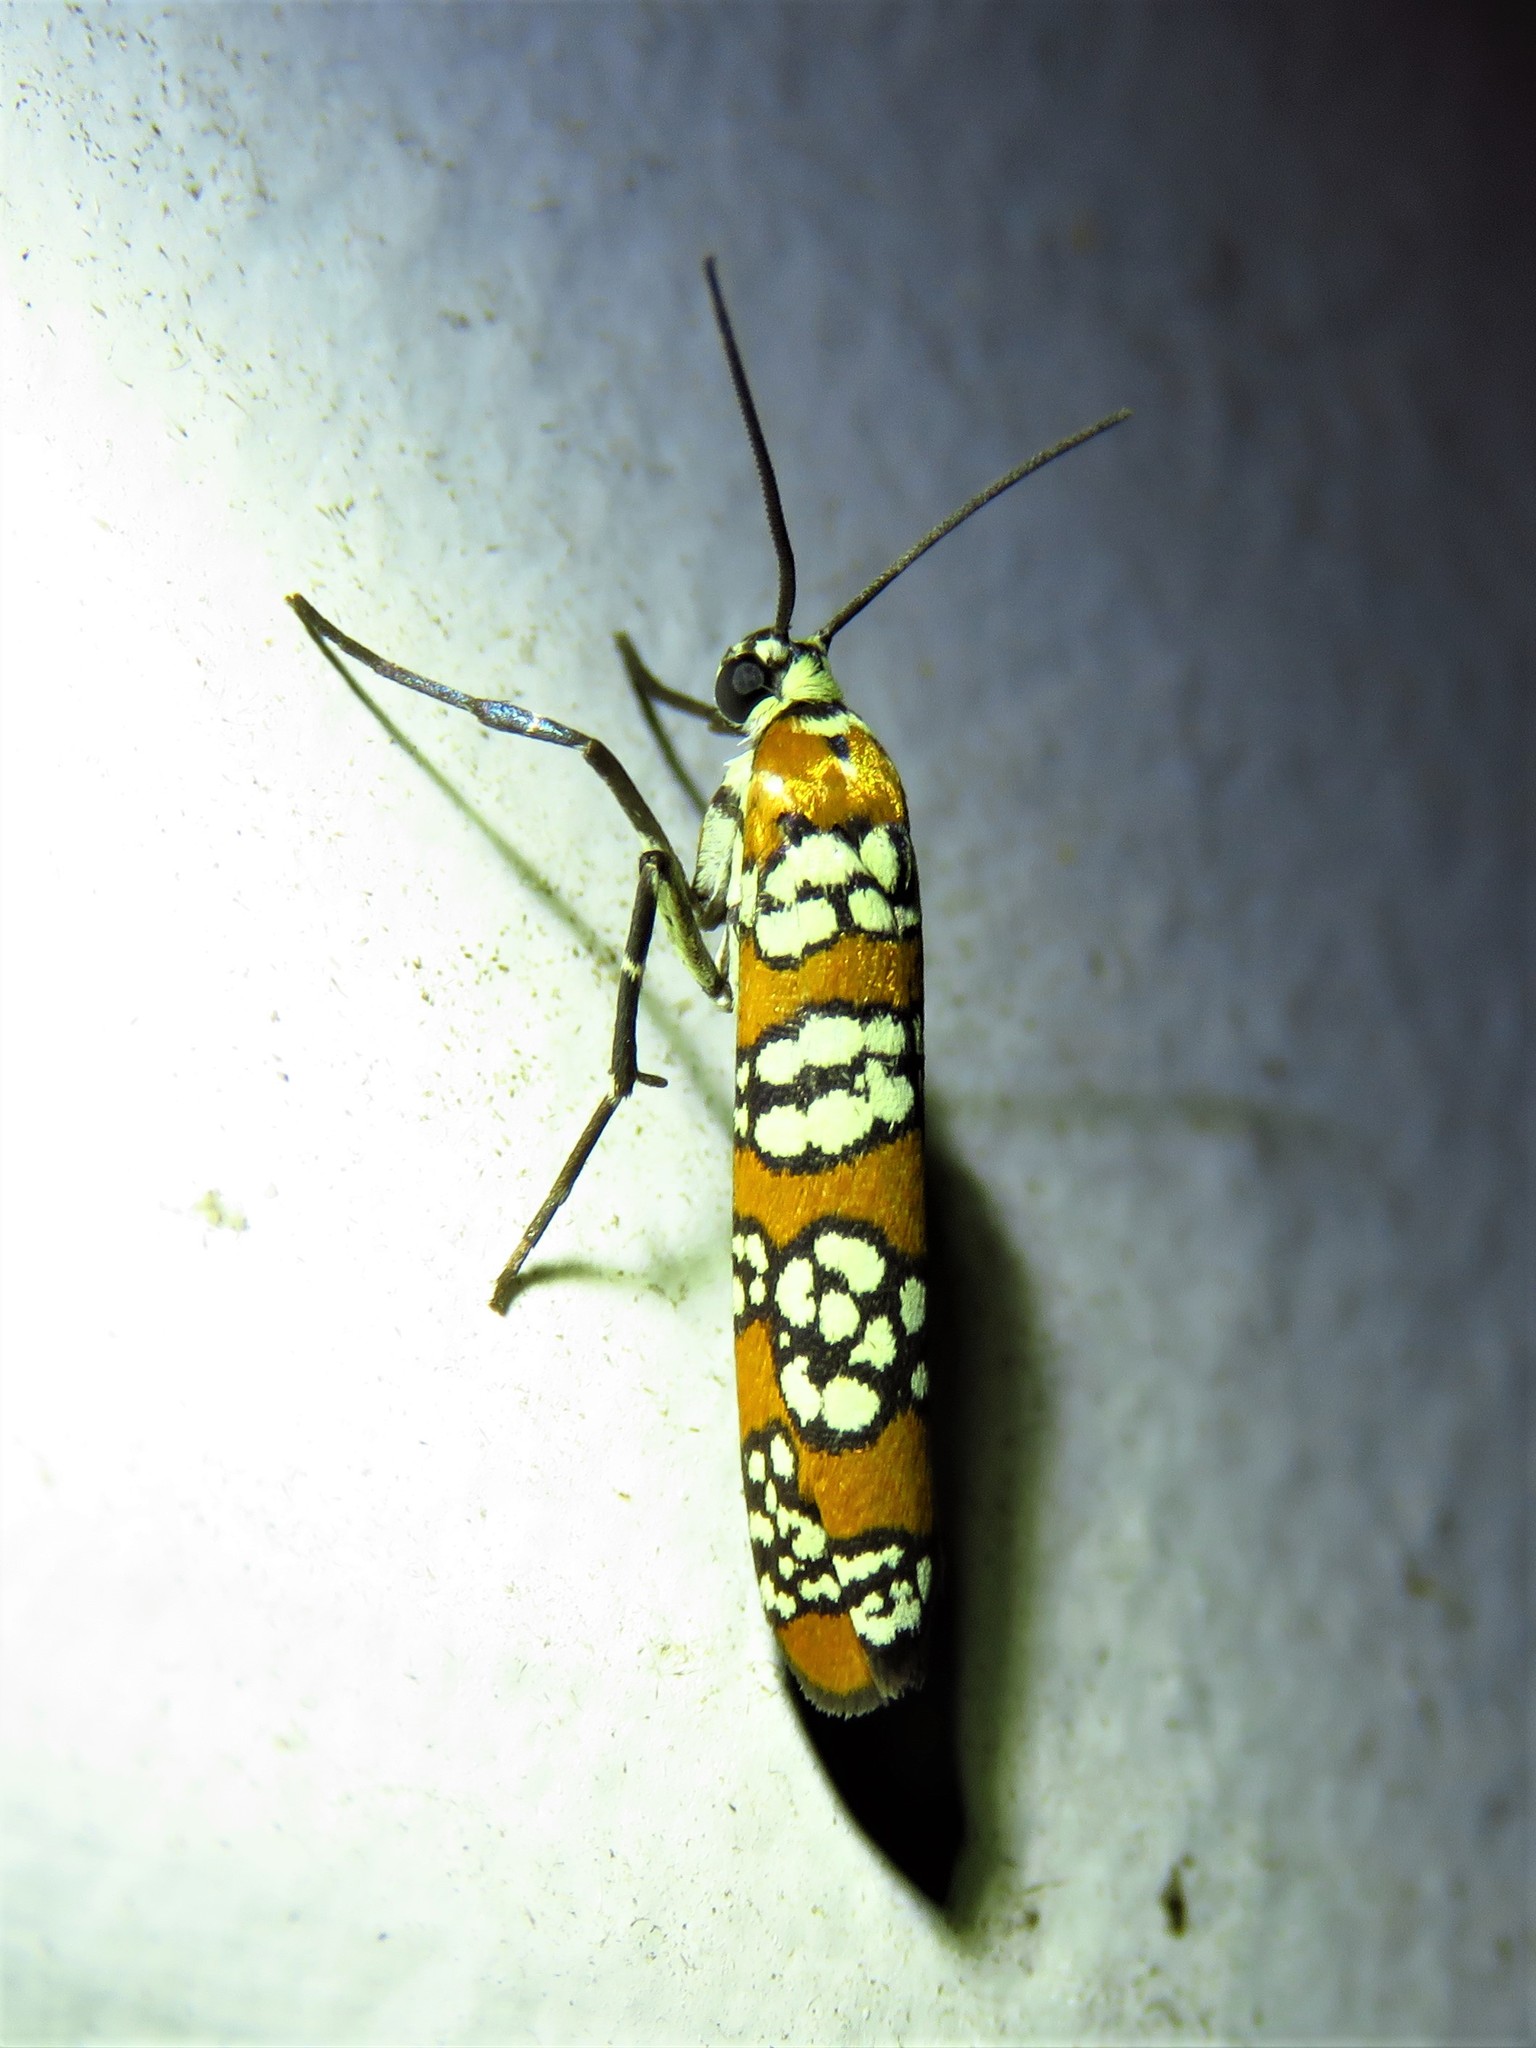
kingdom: Animalia
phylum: Arthropoda
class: Insecta
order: Lepidoptera
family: Attevidae
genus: Atteva
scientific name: Atteva punctella
